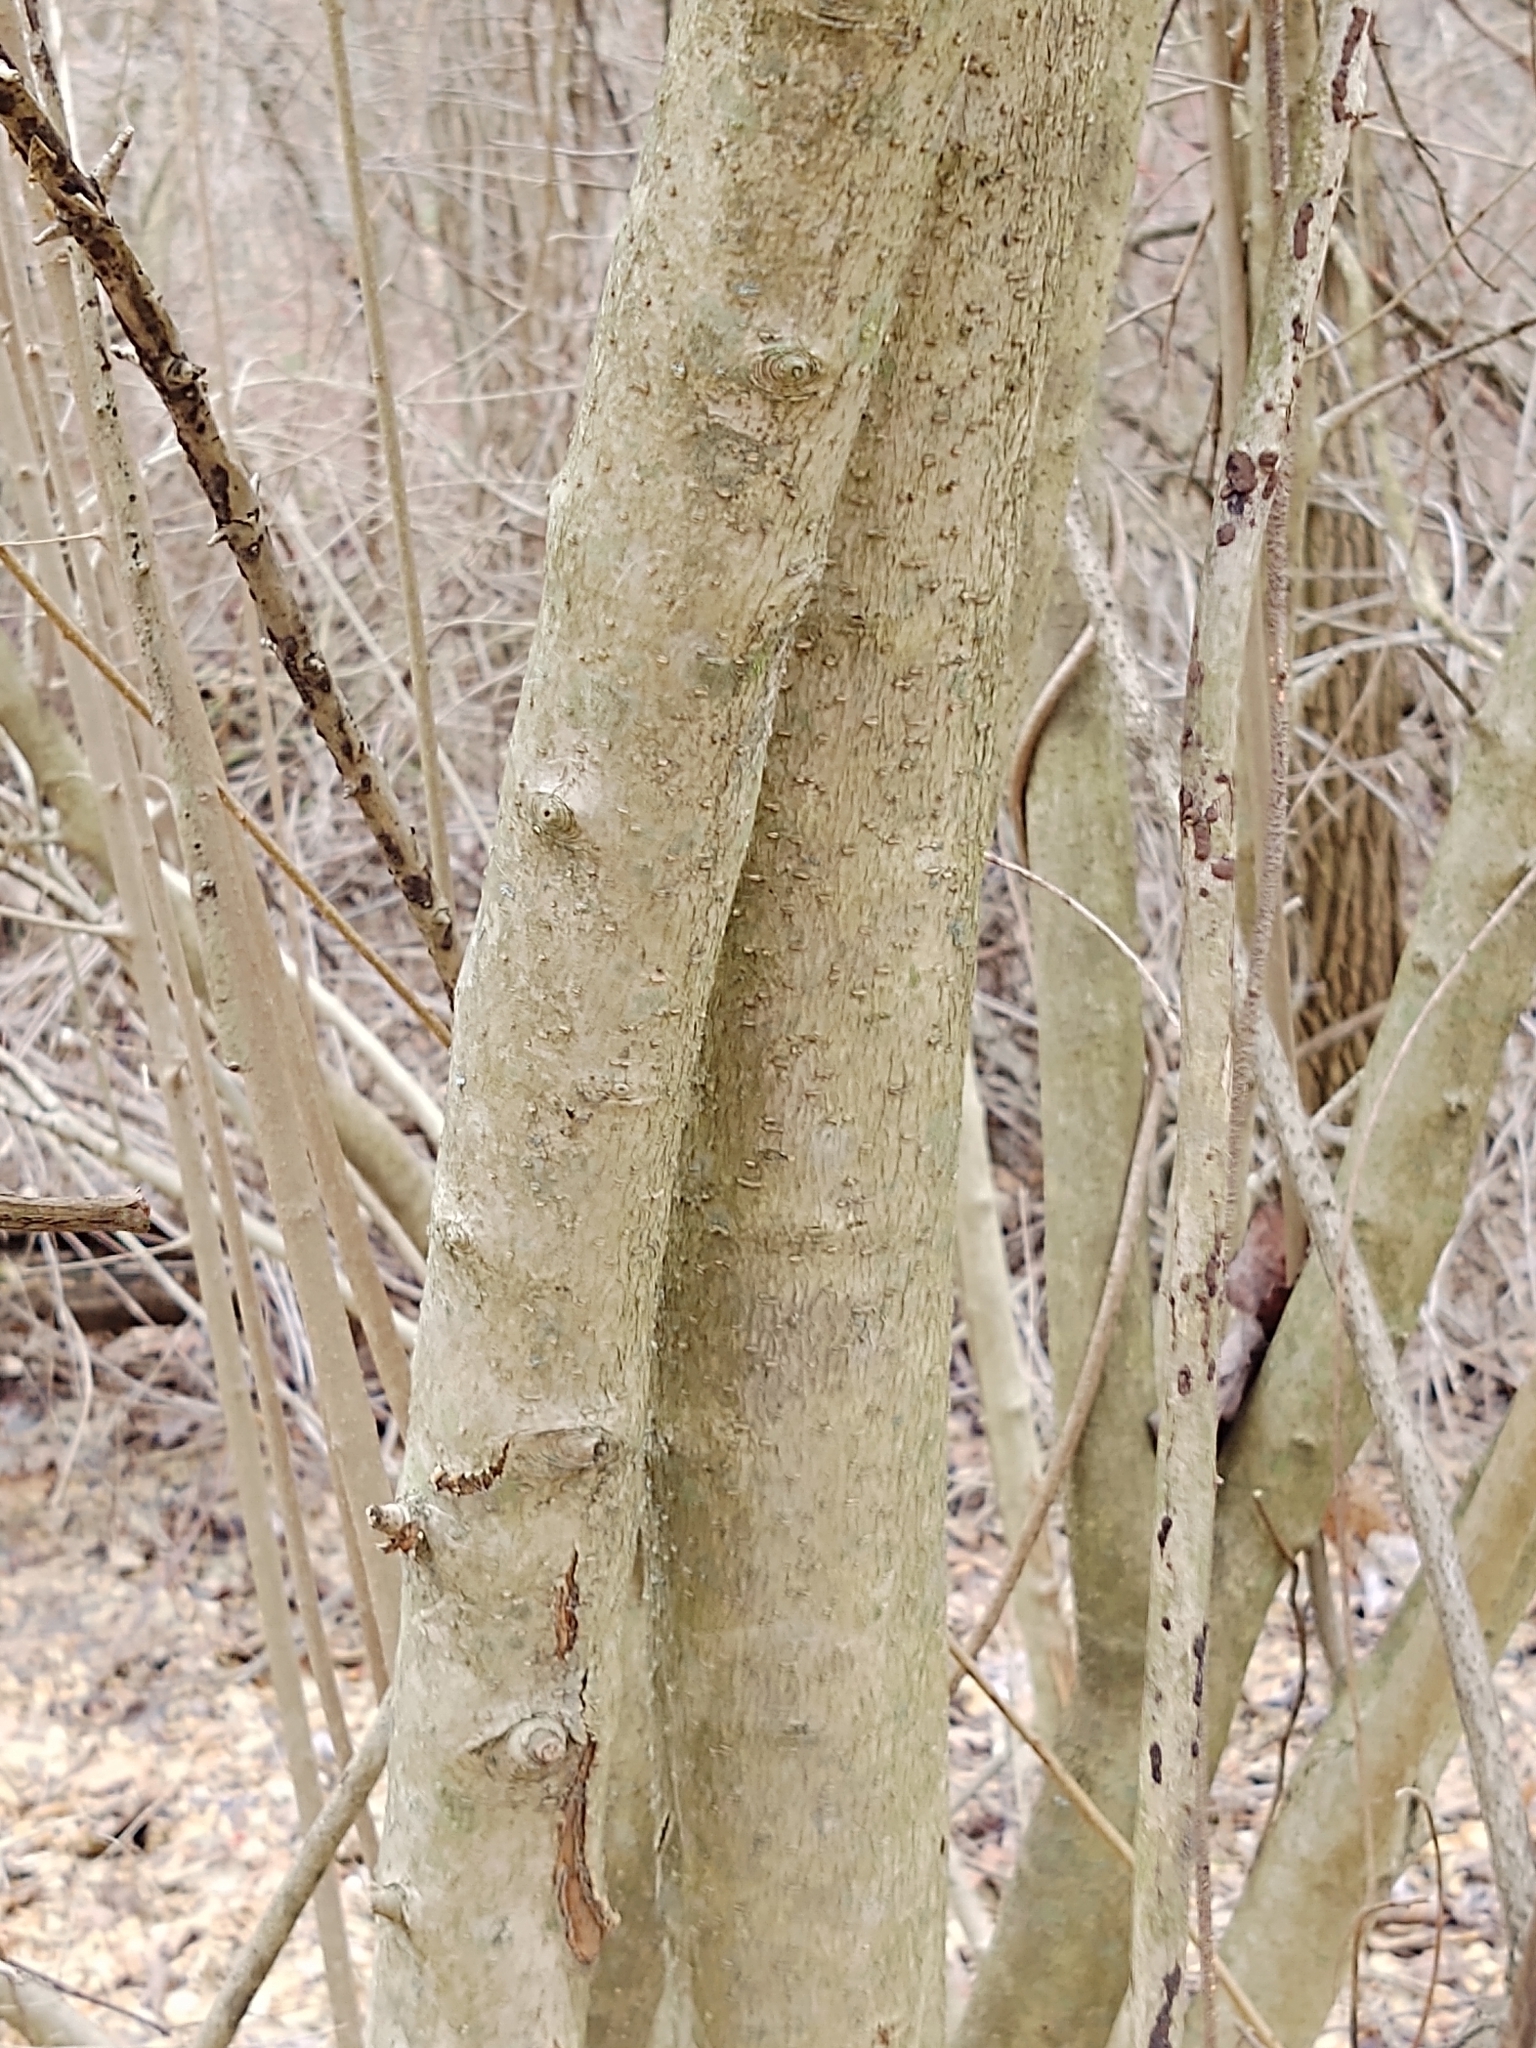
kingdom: Plantae
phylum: Tracheophyta
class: Magnoliopsida
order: Lamiales
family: Oleaceae
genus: Ligustrum
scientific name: Ligustrum
